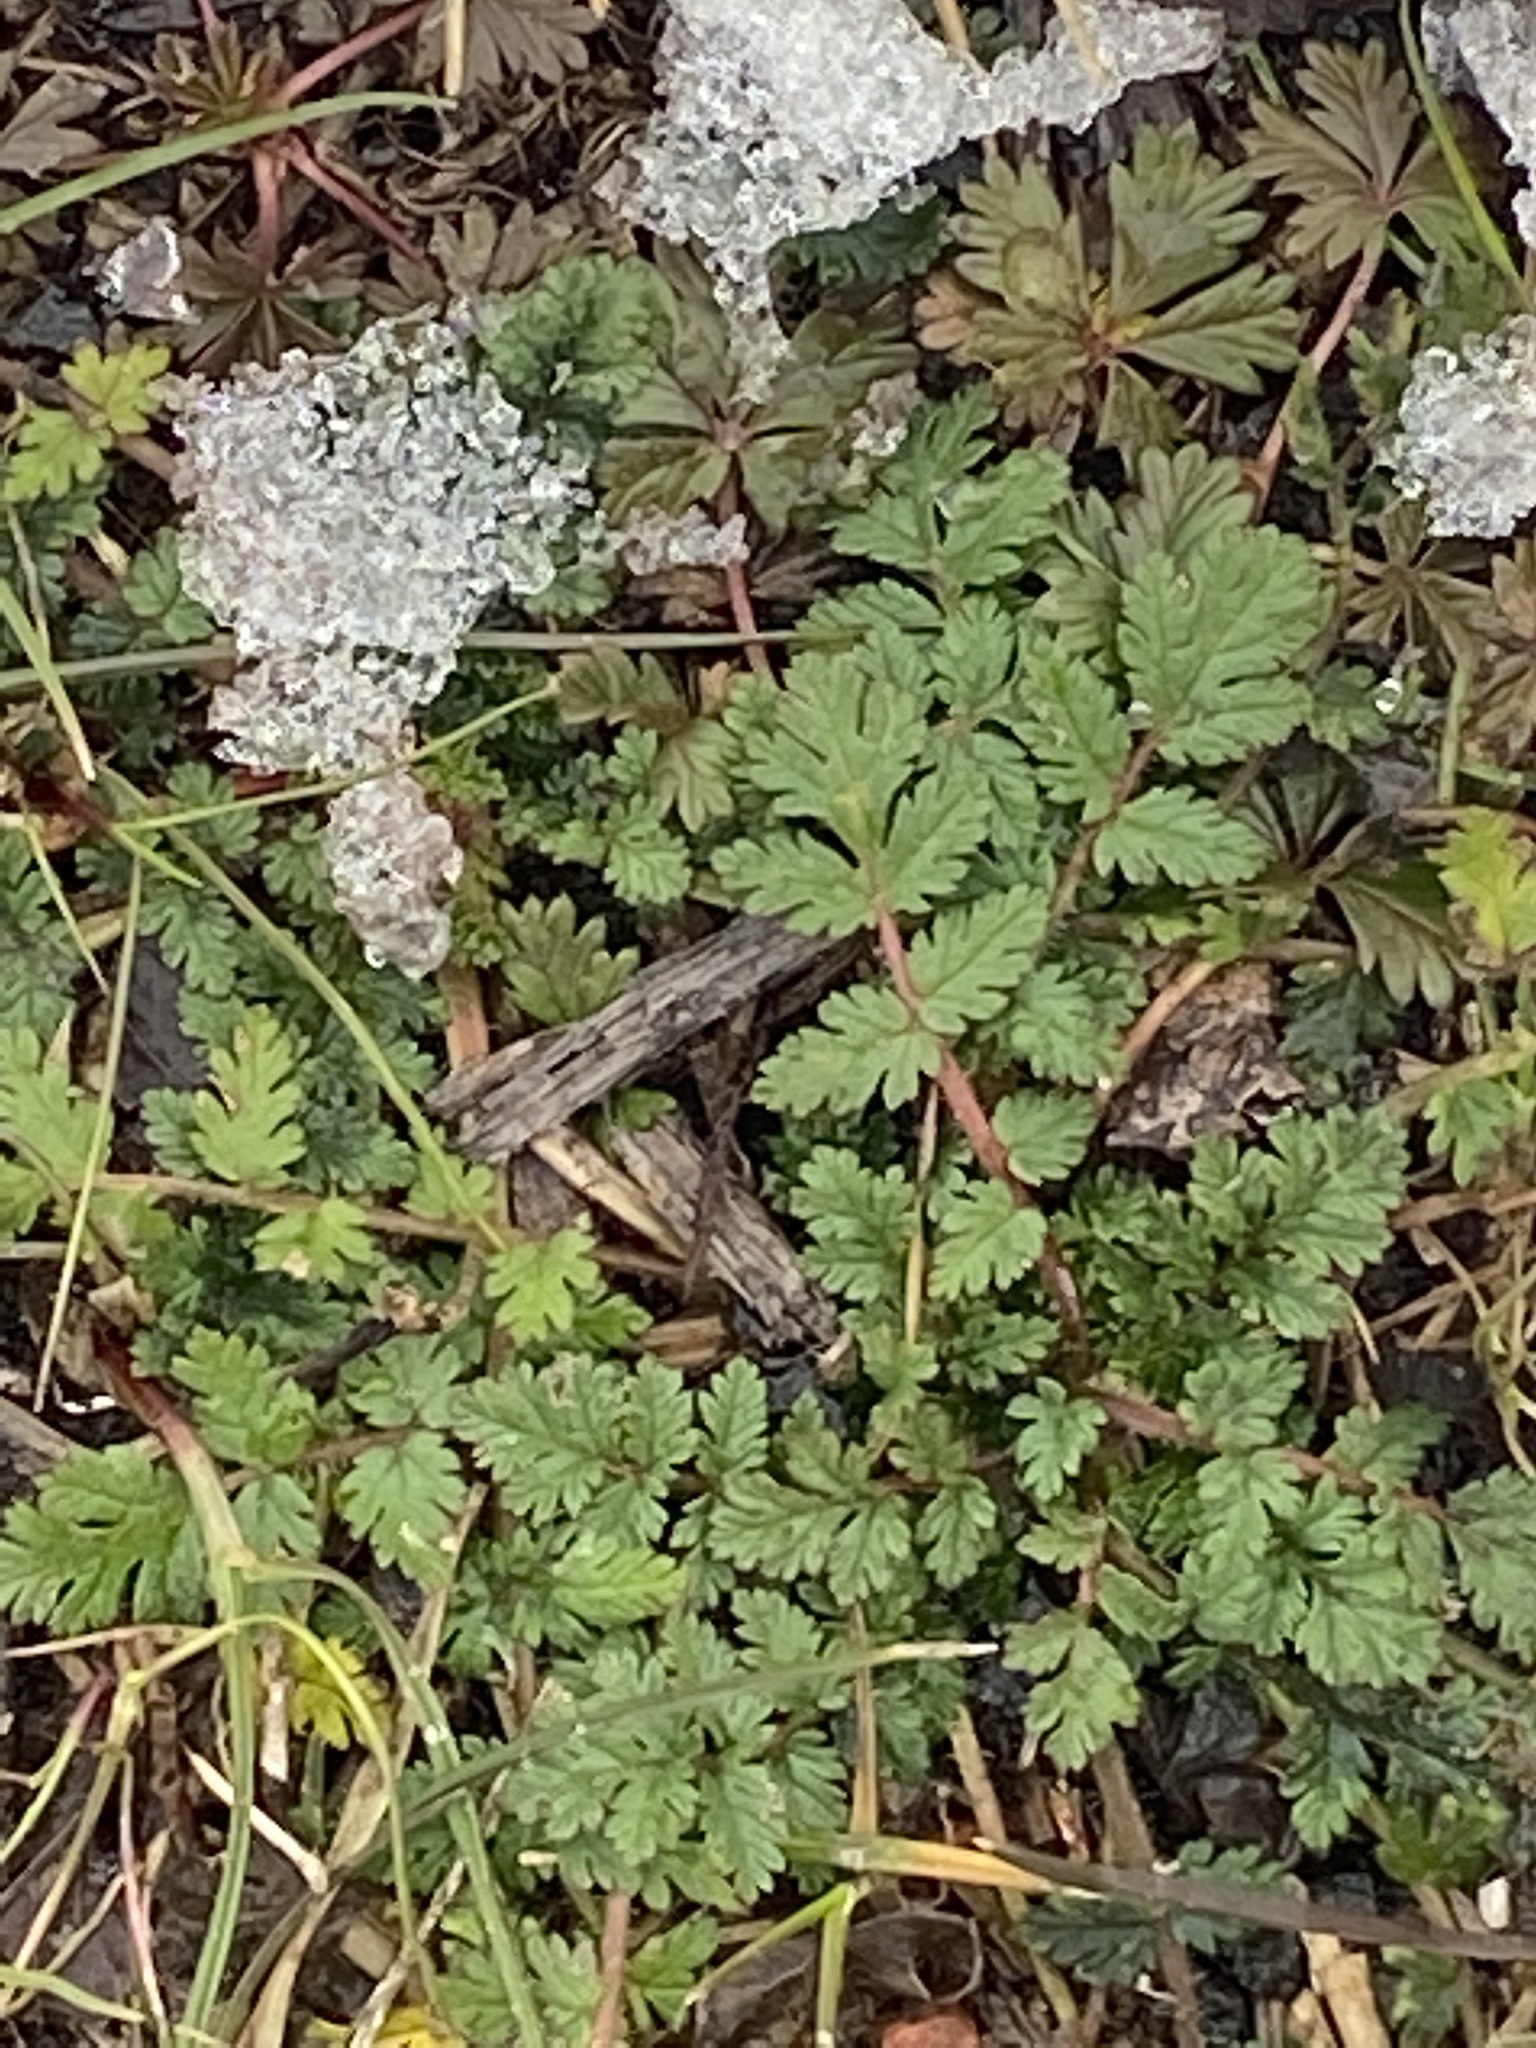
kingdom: Plantae
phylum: Tracheophyta
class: Magnoliopsida
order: Geraniales
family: Geraniaceae
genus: Erodium
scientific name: Erodium cicutarium
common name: Common stork's-bill
